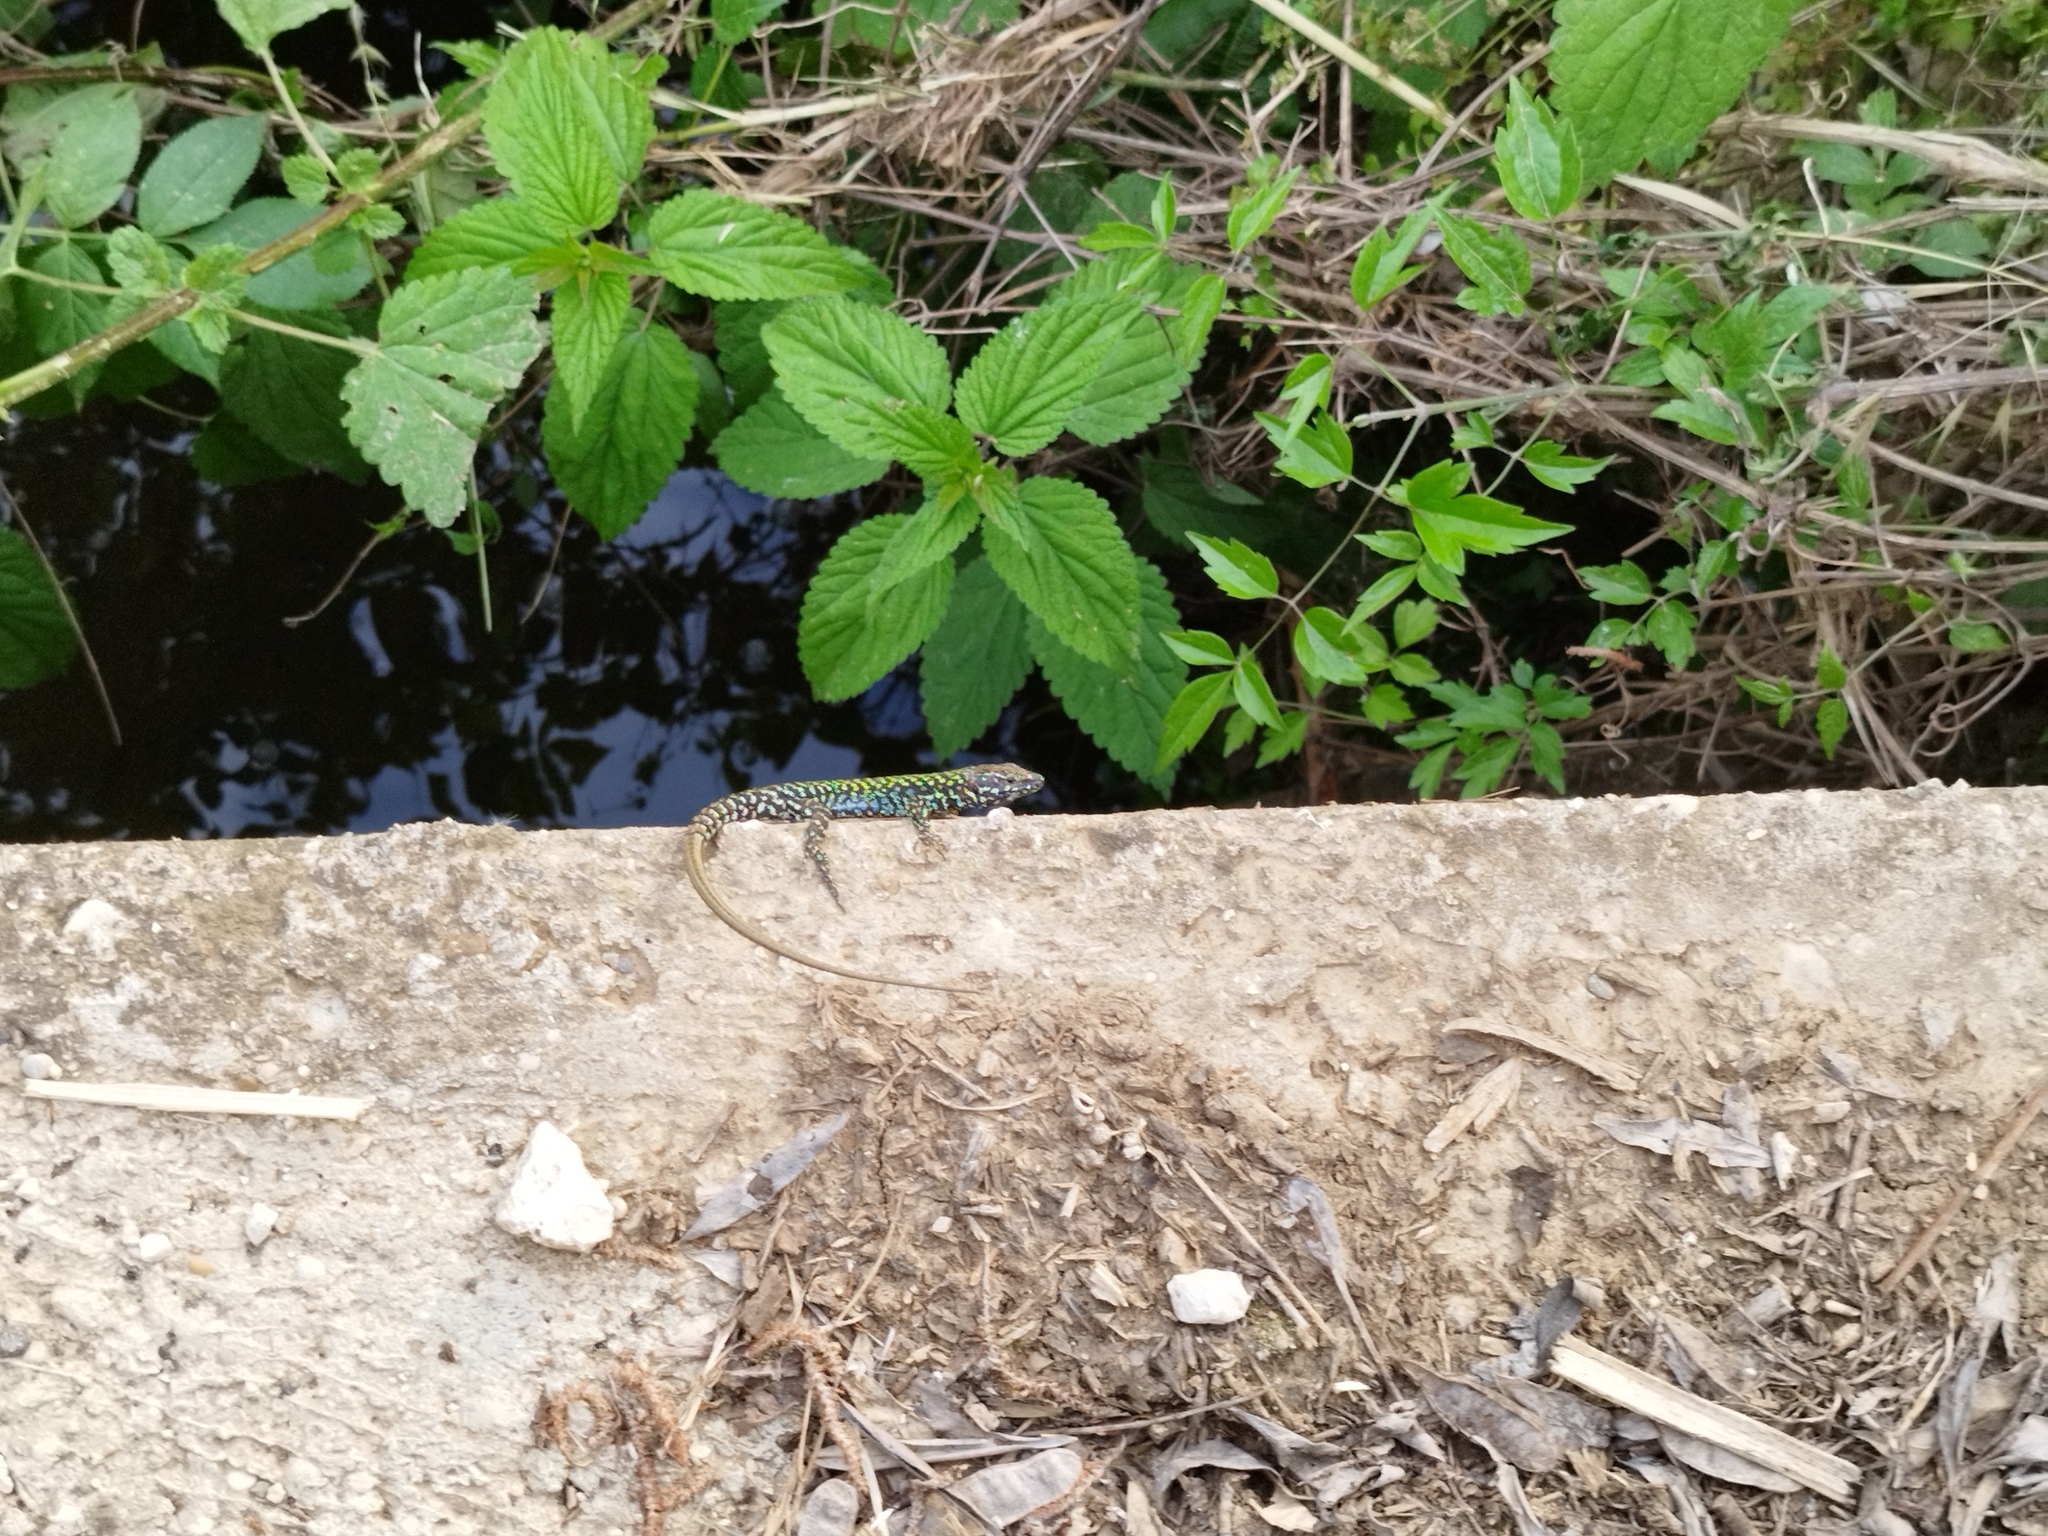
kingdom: Animalia
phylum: Chordata
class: Squamata
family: Lacertidae
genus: Podarcis
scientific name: Podarcis muralis
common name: Common wall lizard
